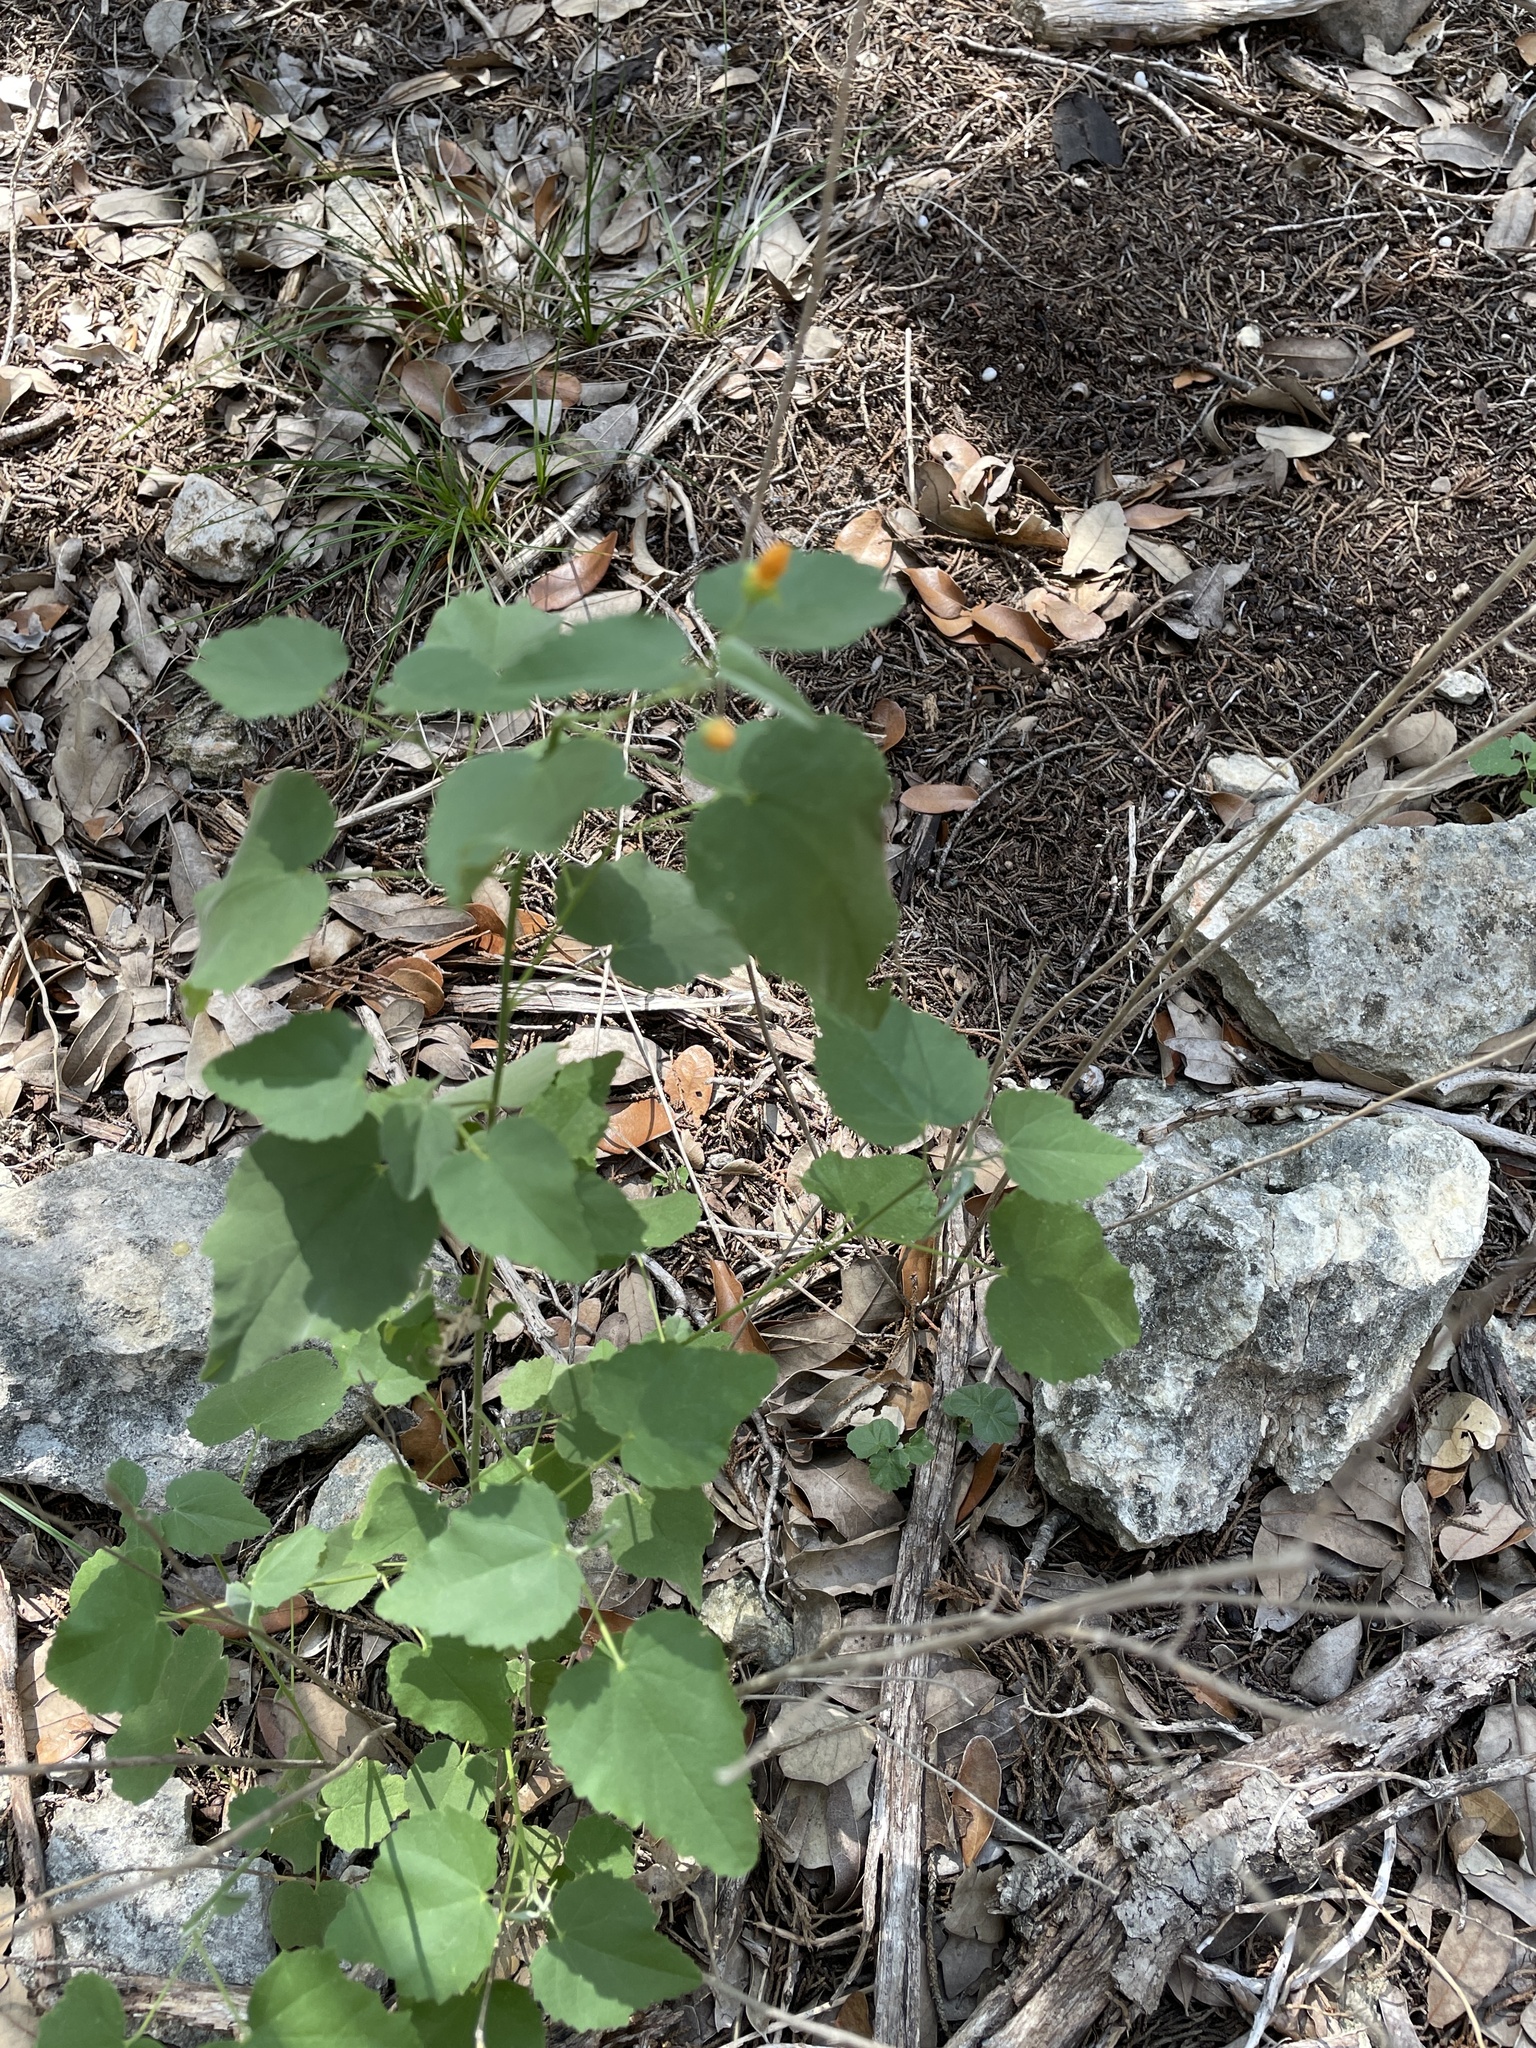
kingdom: Plantae
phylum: Tracheophyta
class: Magnoliopsida
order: Malvales
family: Malvaceae
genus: Abutilon
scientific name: Abutilon fruticosum
